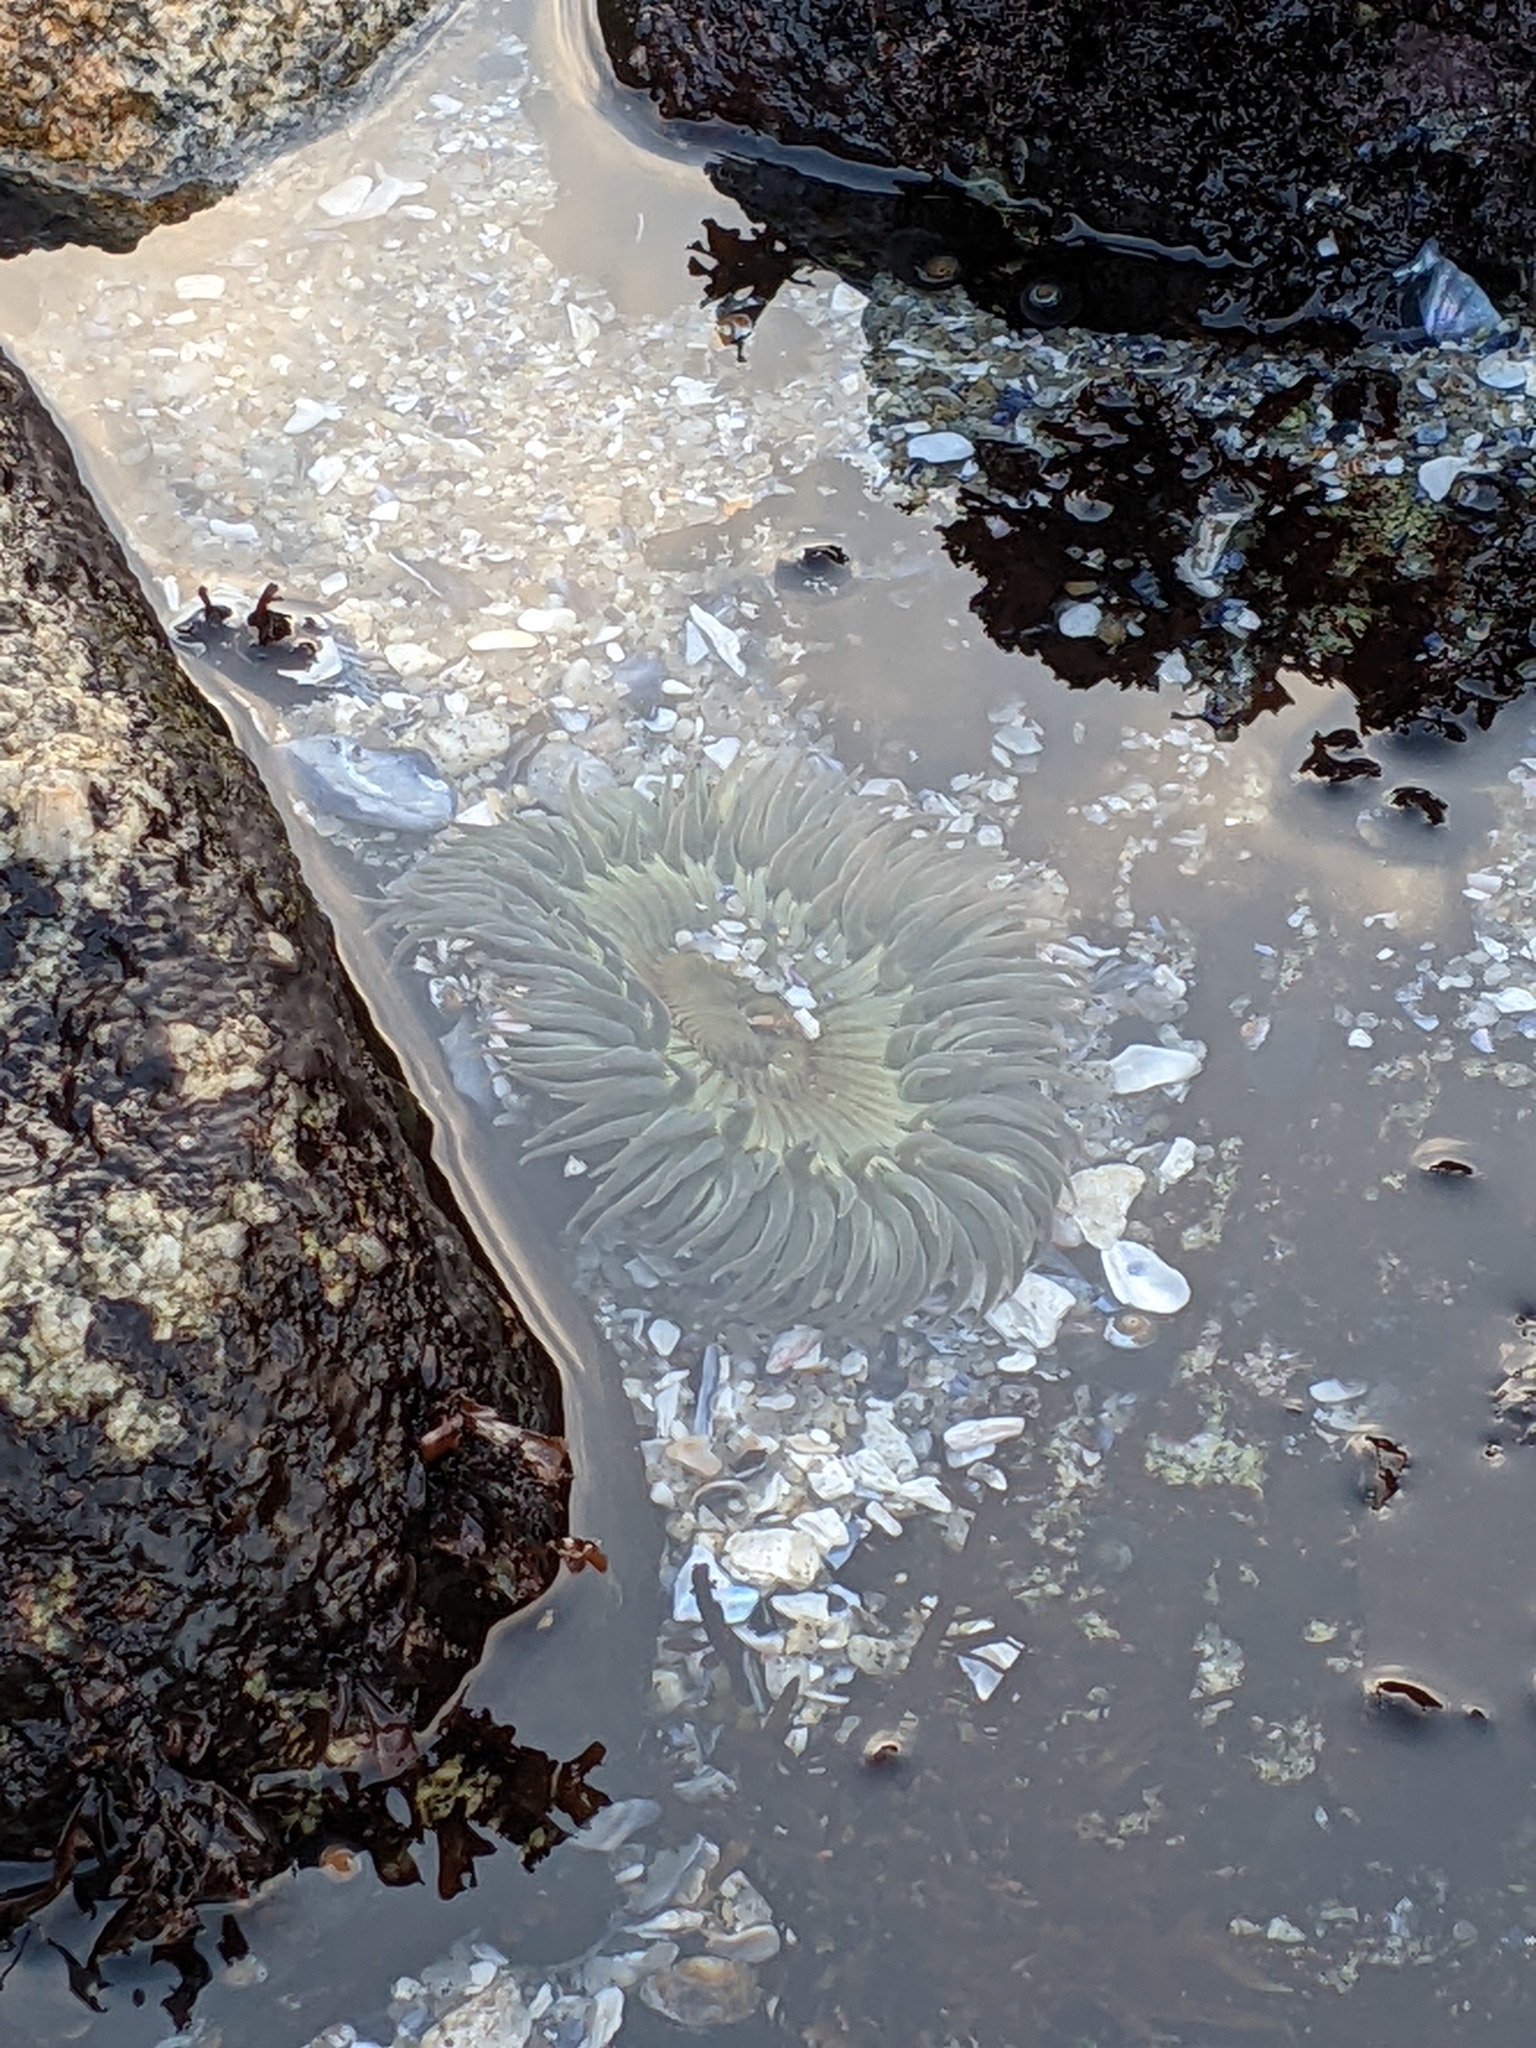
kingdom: Animalia
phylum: Cnidaria
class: Anthozoa
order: Actiniaria
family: Actiniidae
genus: Anthopleura
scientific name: Anthopleura sola
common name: Sun anemone
